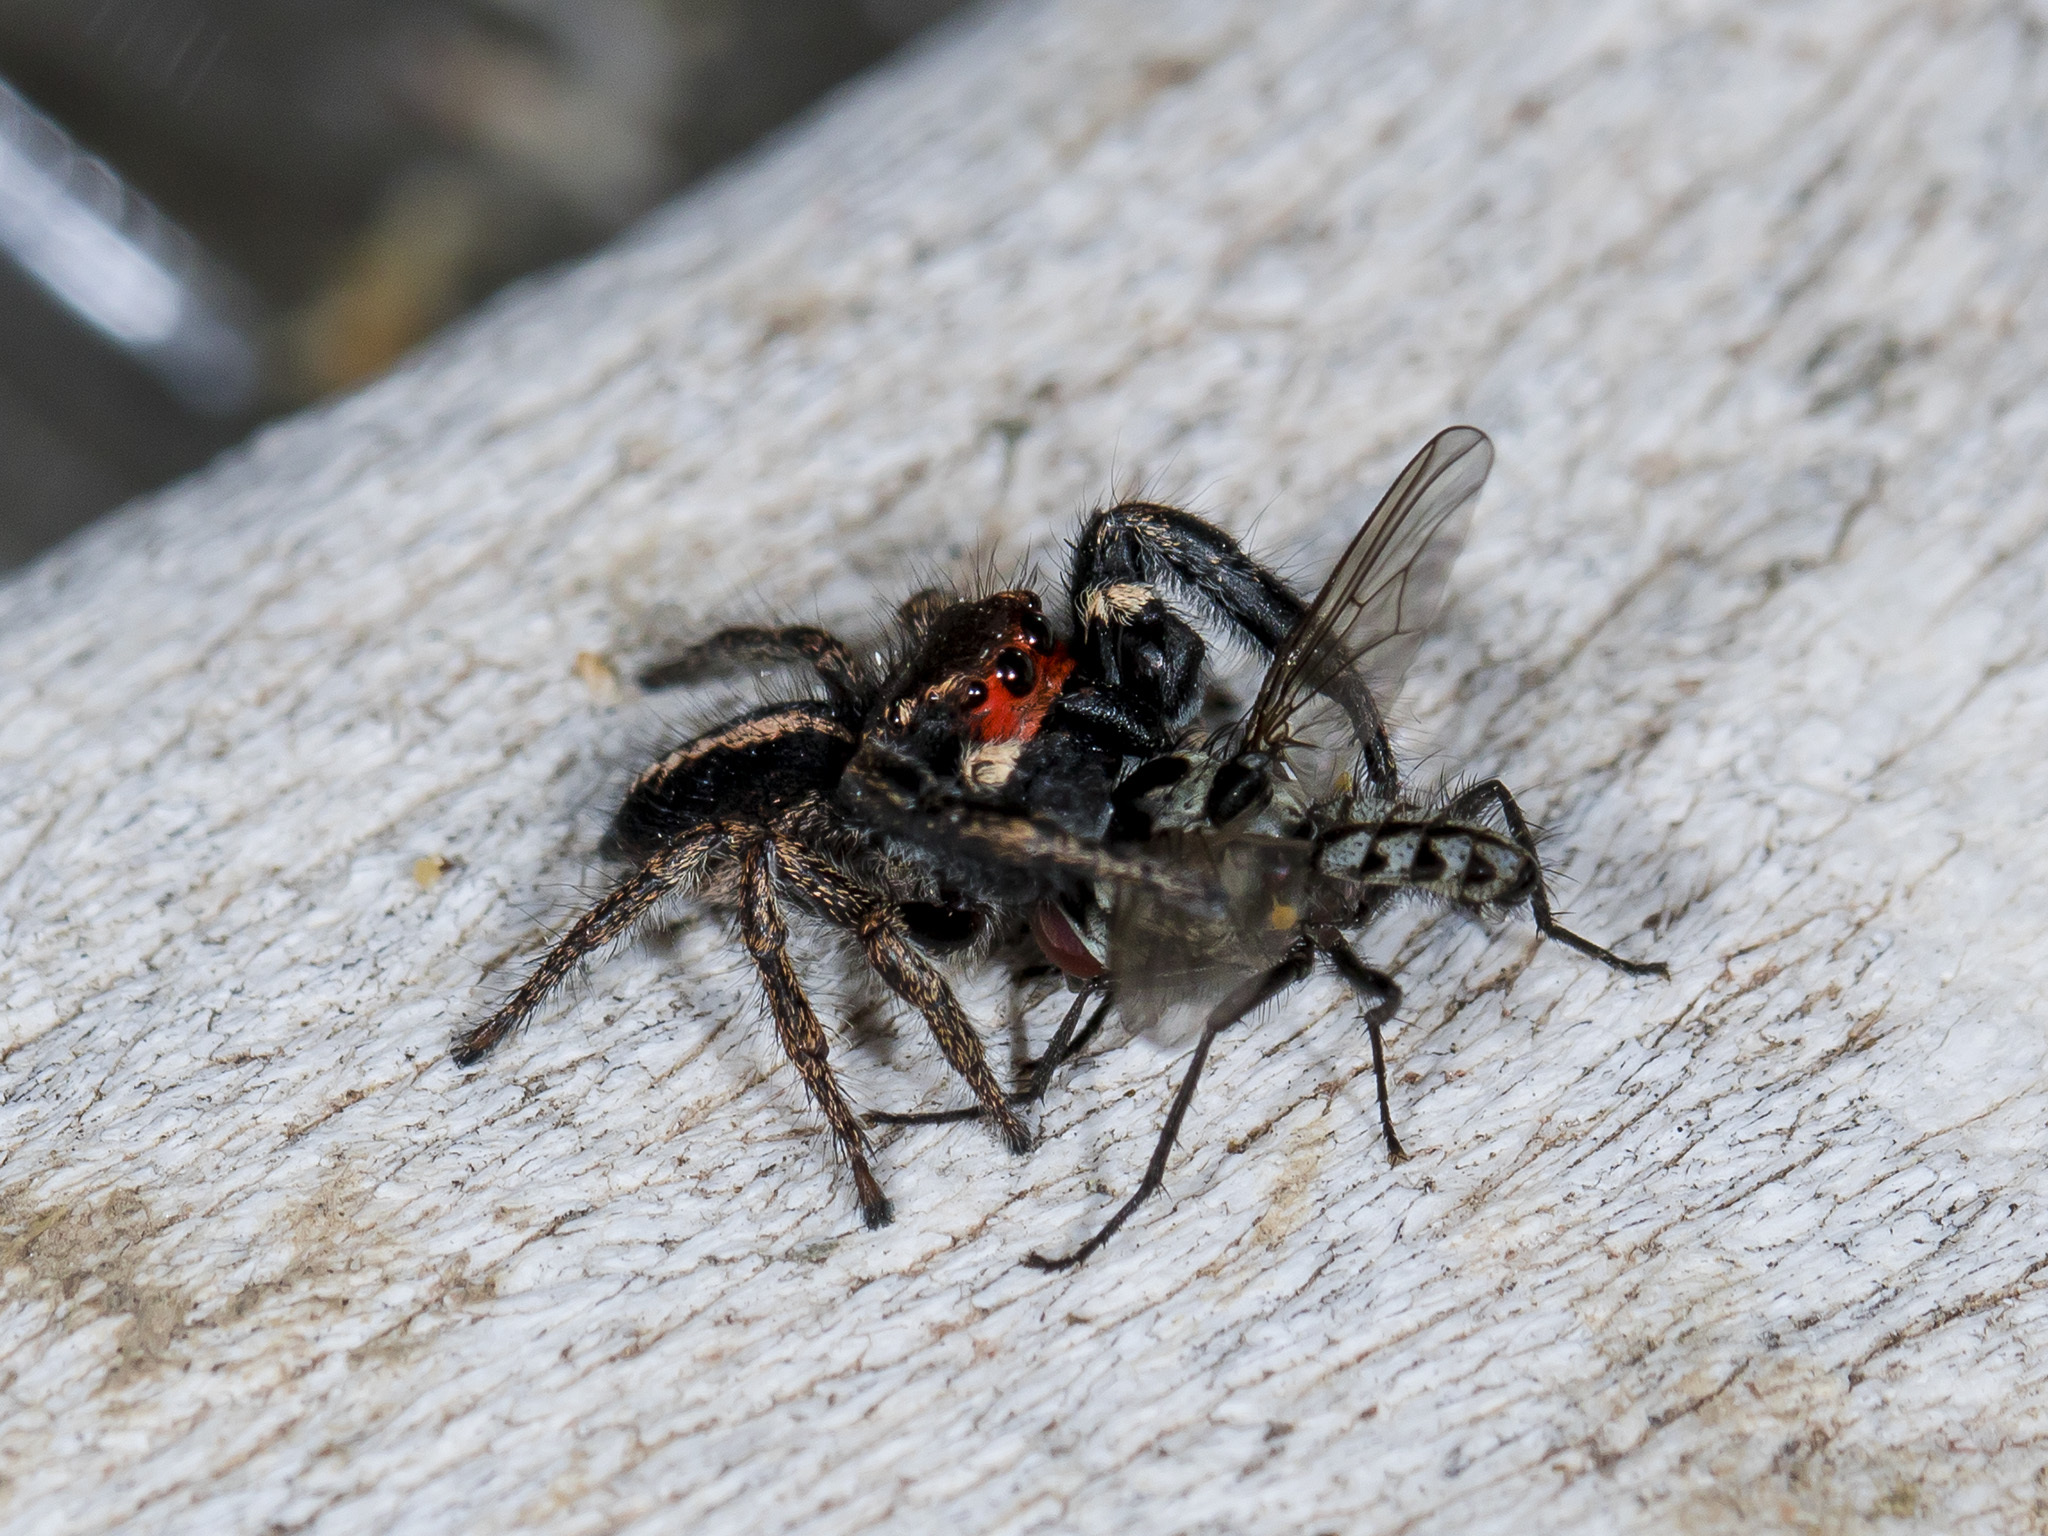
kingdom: Animalia
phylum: Arthropoda
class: Arachnida
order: Araneae
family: Salticidae
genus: Pellenes
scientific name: Pellenes seriatus
